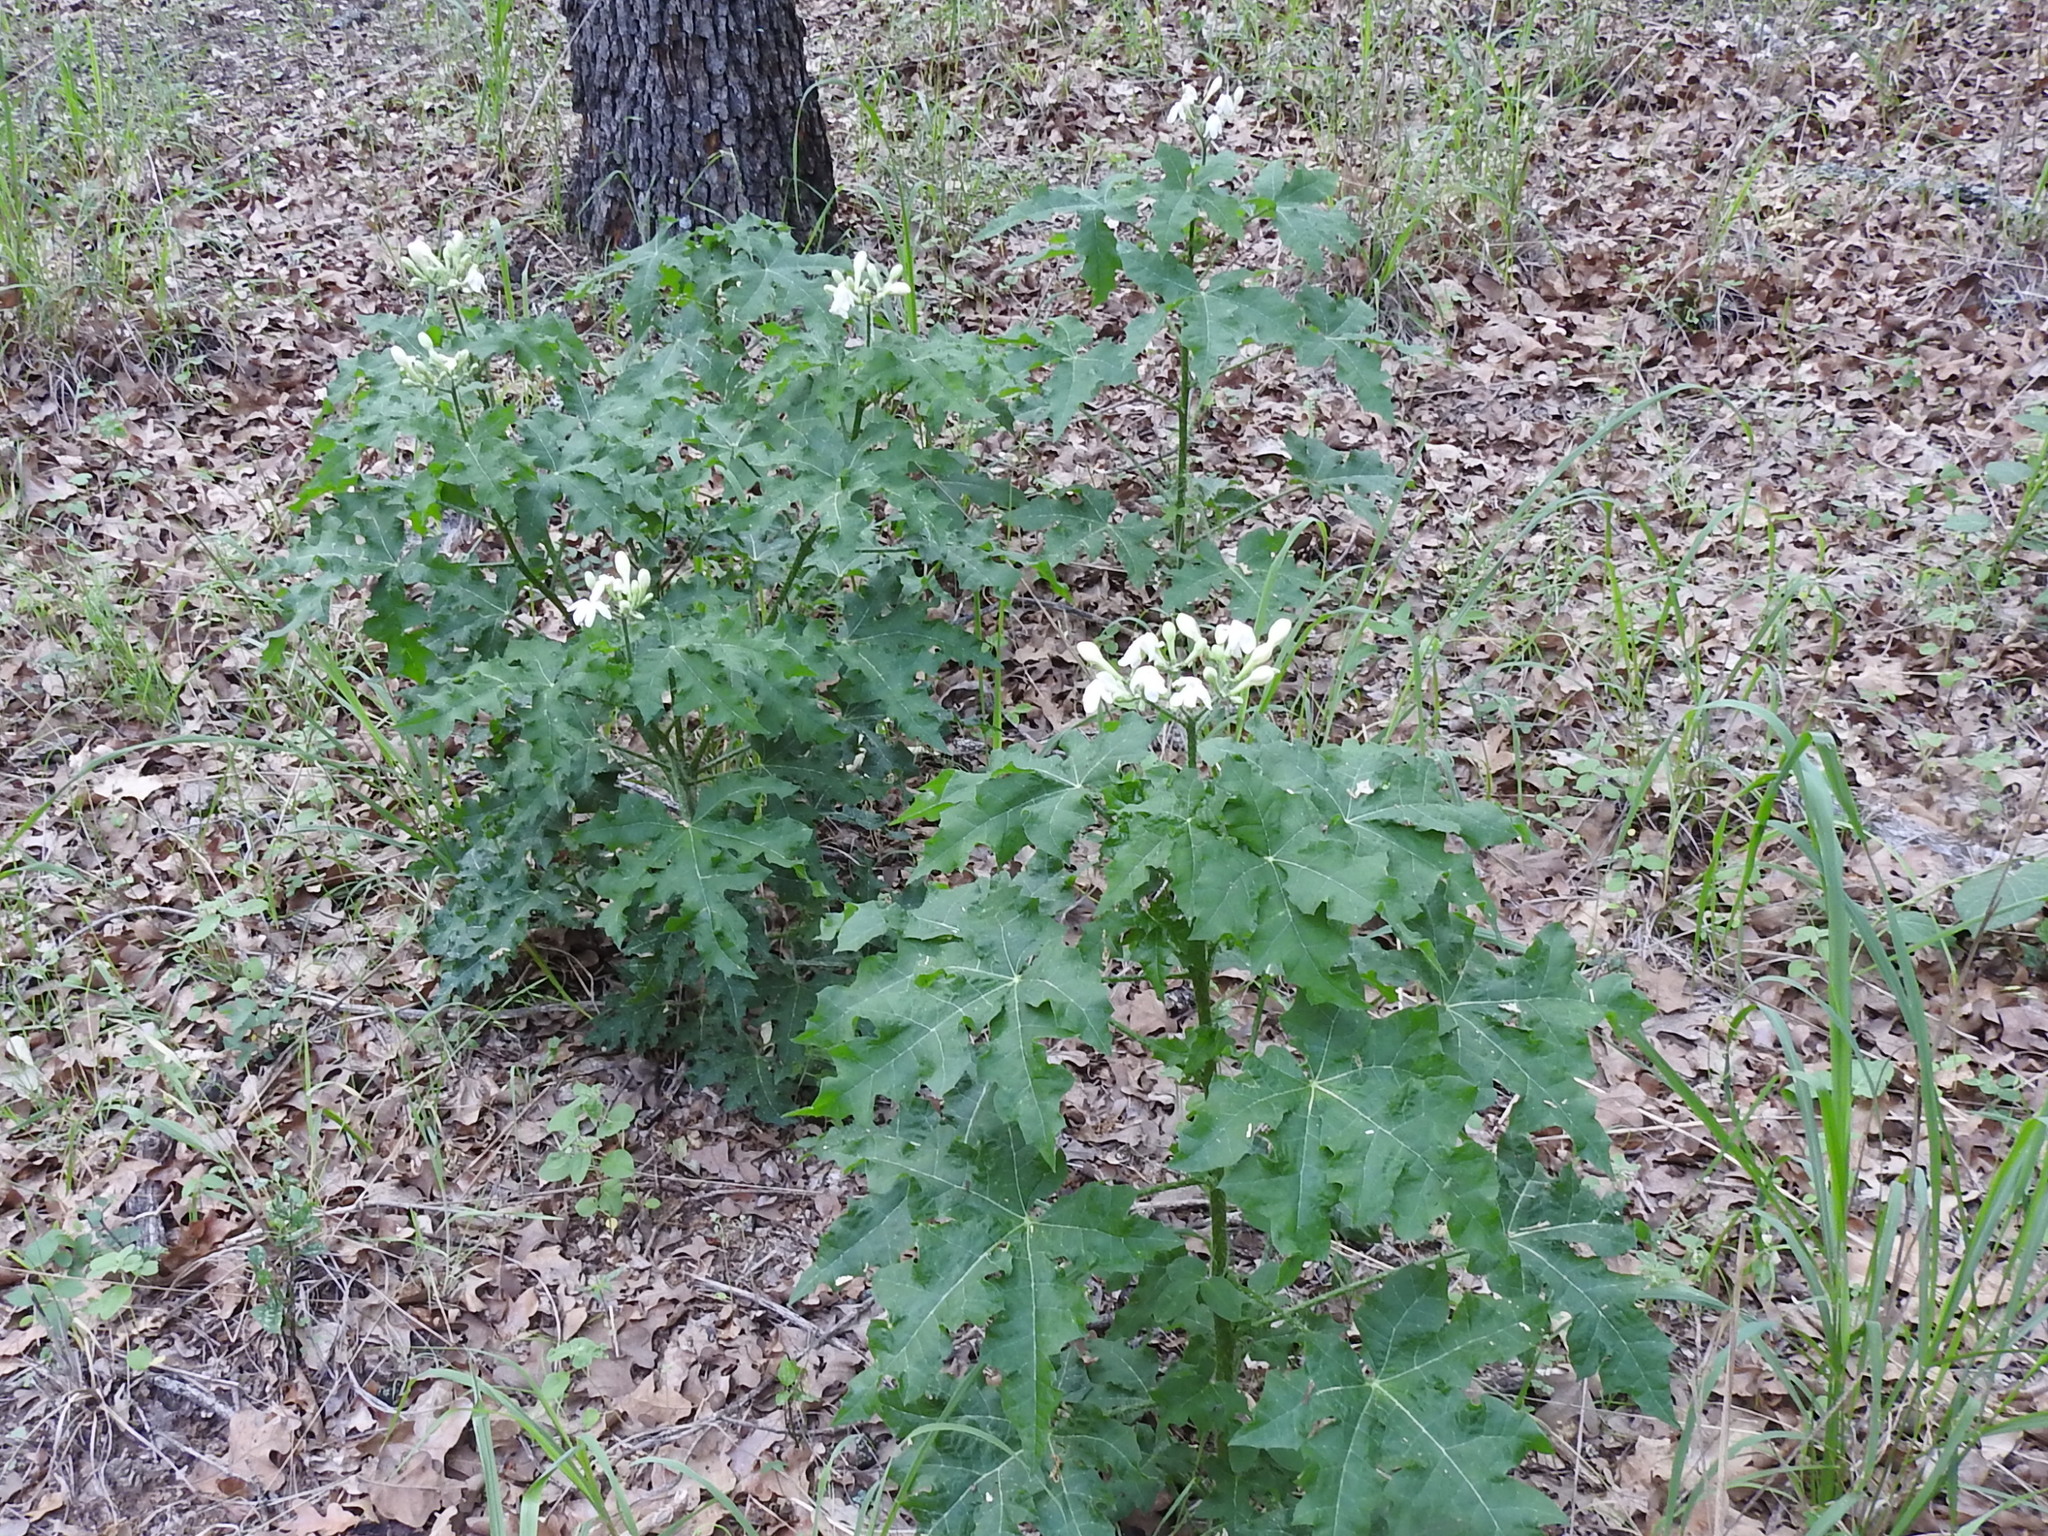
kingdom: Plantae
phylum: Tracheophyta
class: Magnoliopsida
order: Malpighiales
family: Euphorbiaceae
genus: Cnidoscolus
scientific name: Cnidoscolus texanus
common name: Texas bull-nettle
